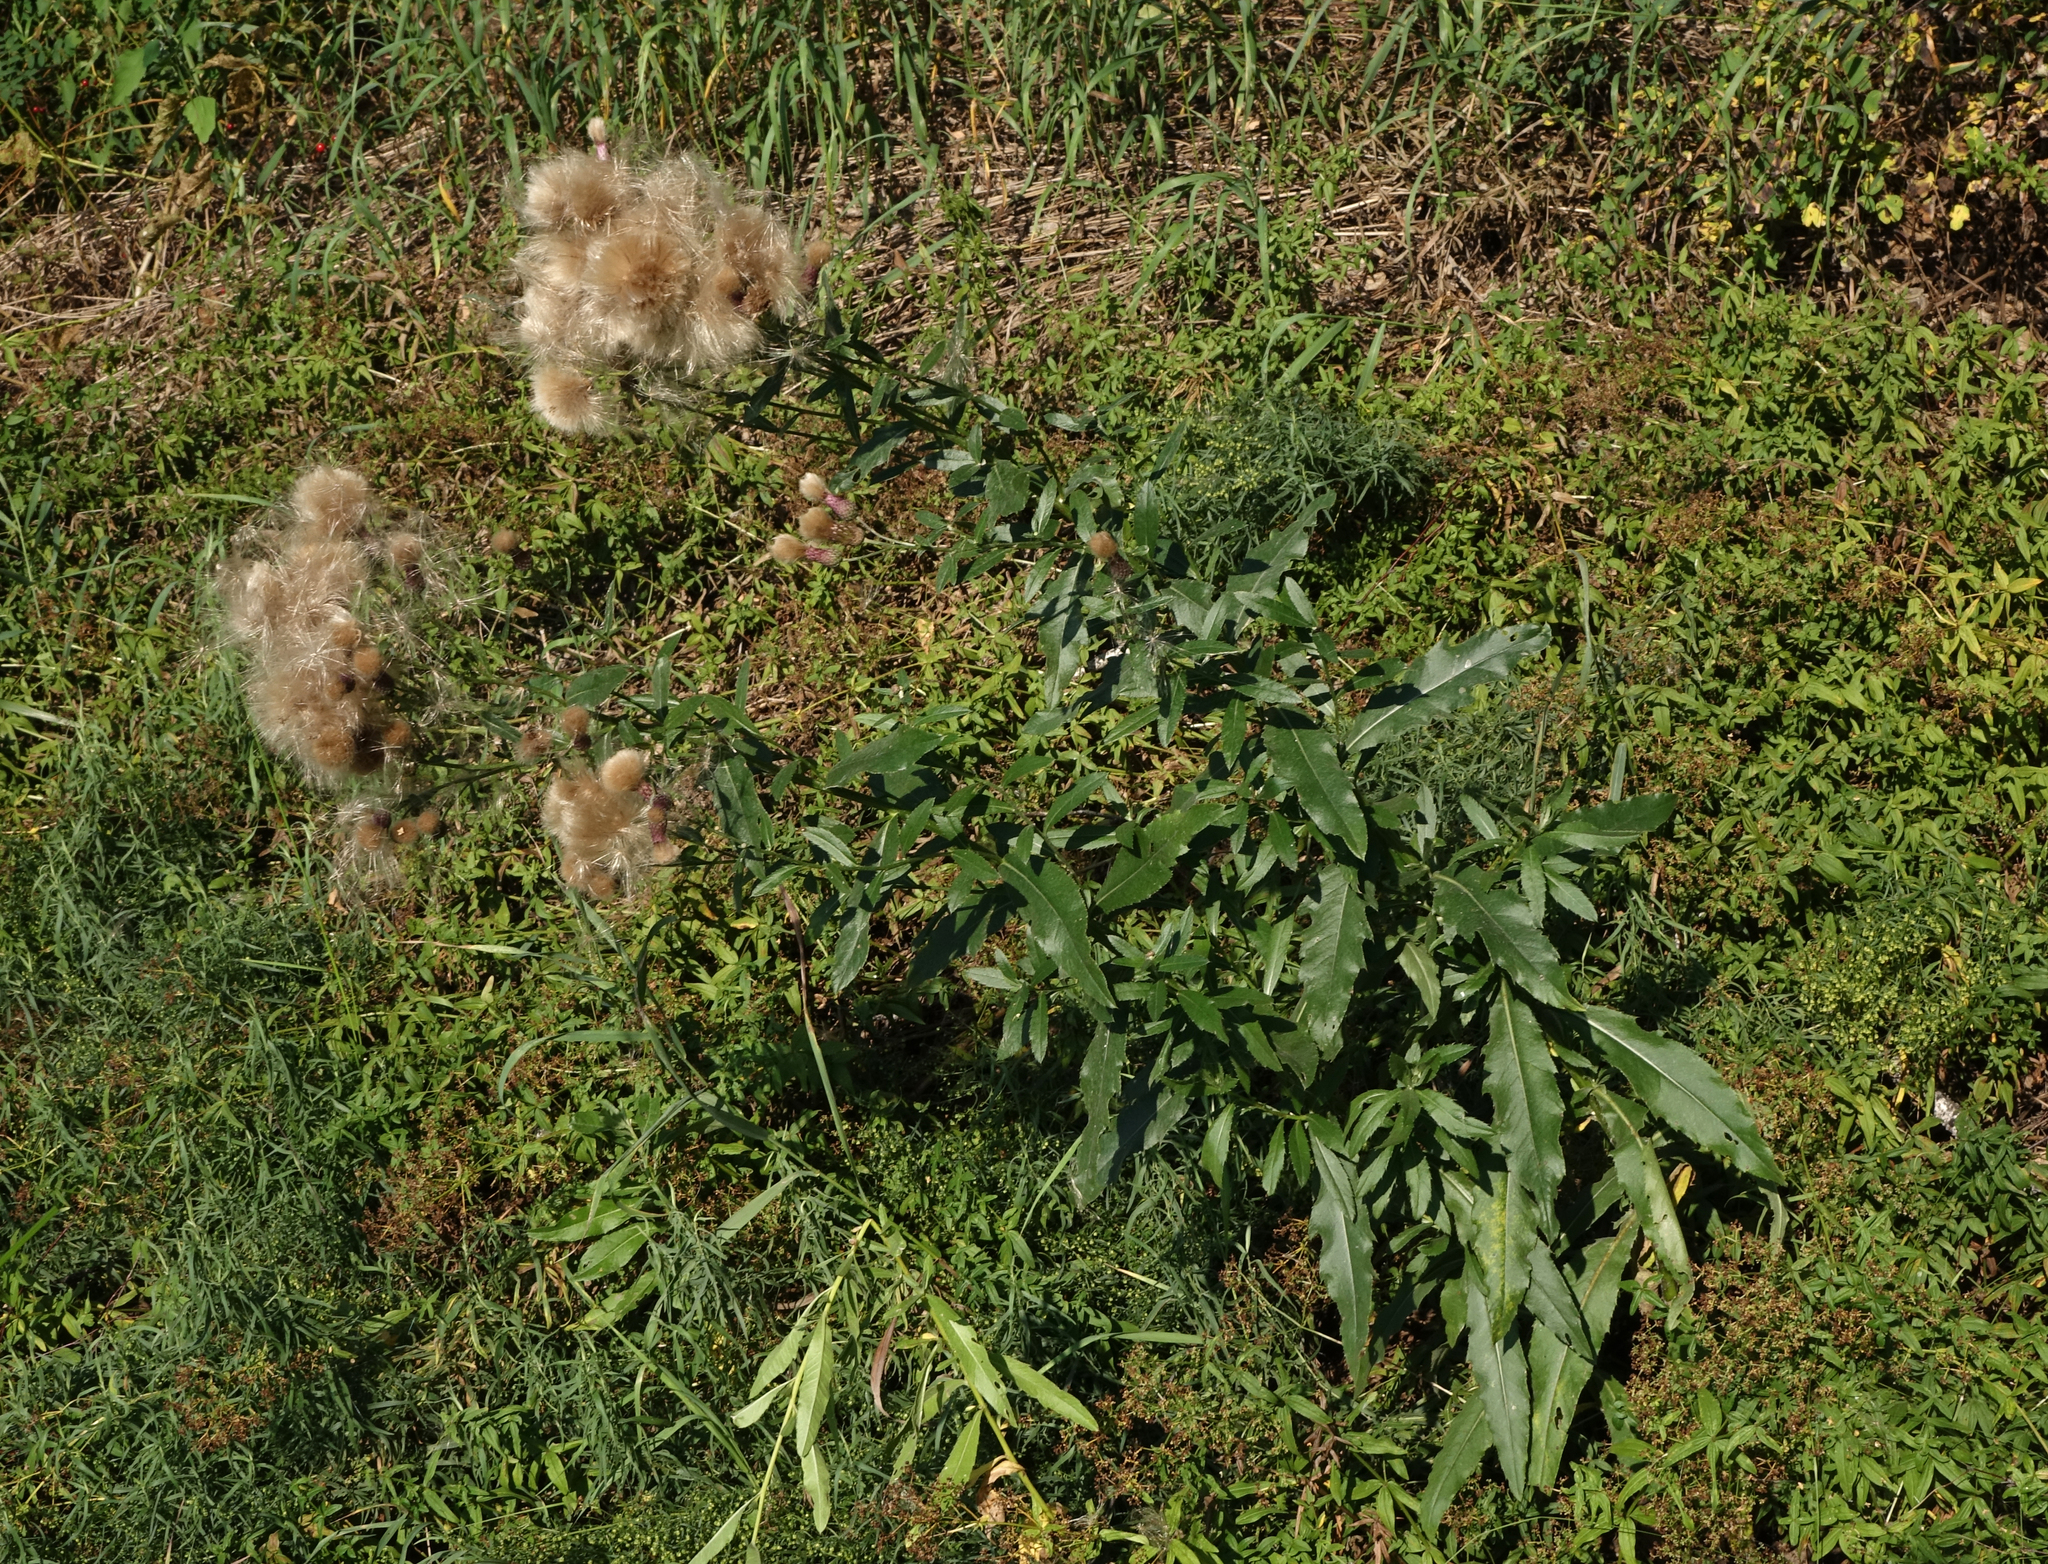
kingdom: Plantae
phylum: Tracheophyta
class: Magnoliopsida
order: Asterales
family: Asteraceae
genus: Cirsium
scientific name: Cirsium arvense
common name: Creeping thistle
